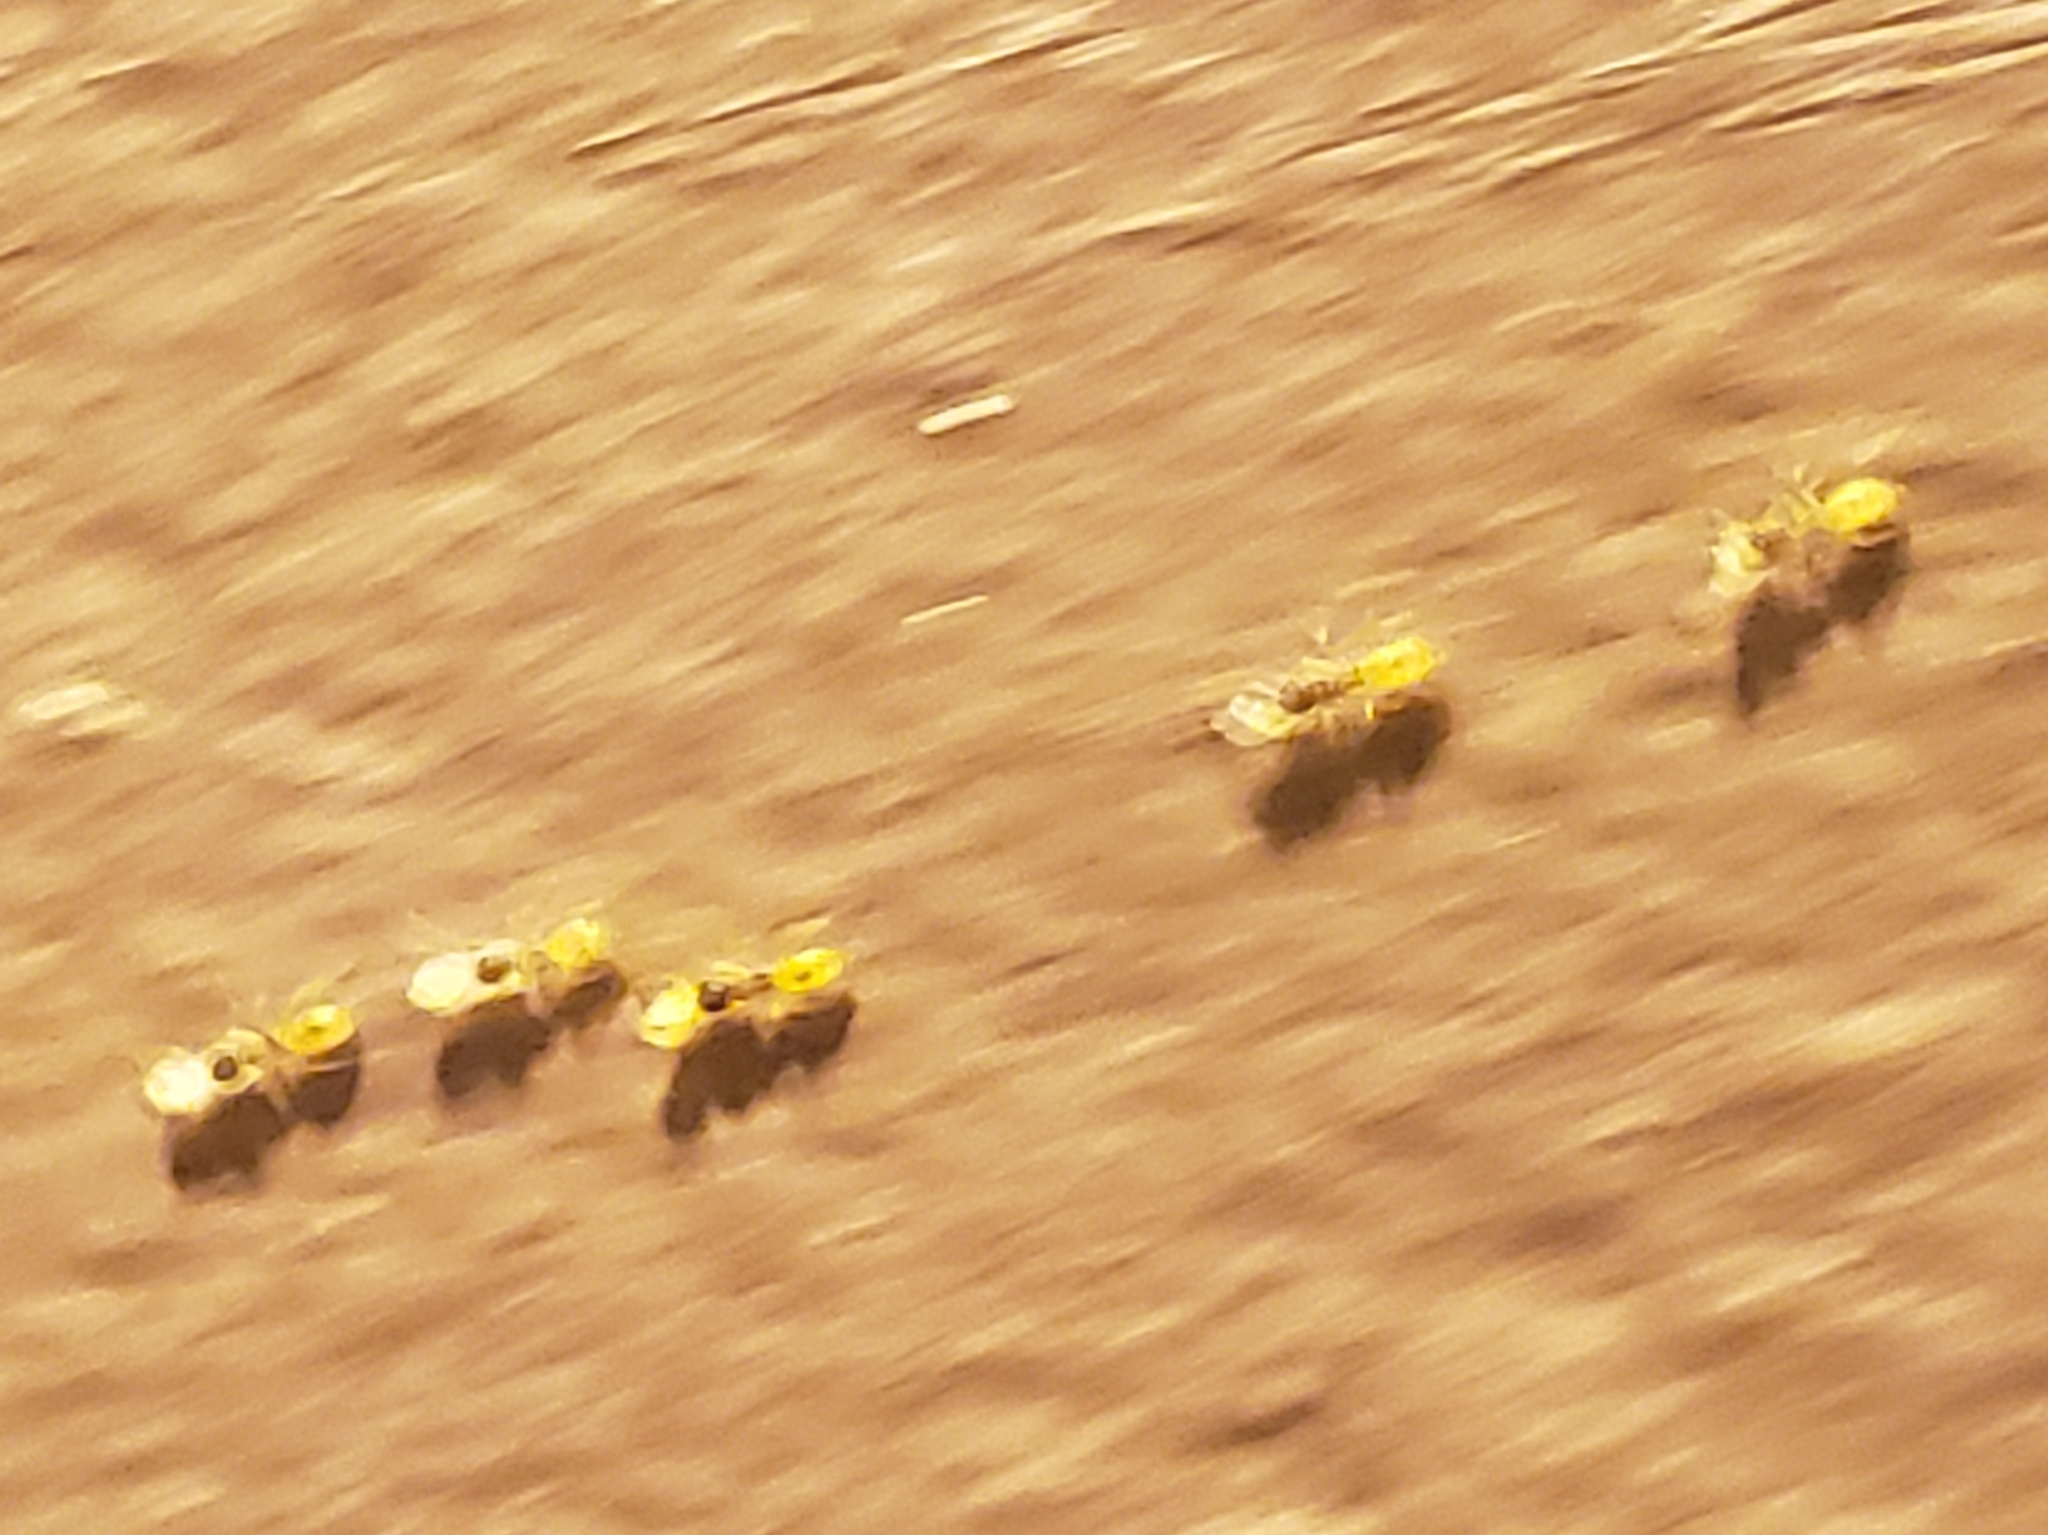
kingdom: Animalia
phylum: Arthropoda
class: Insecta
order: Hymenoptera
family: Formicidae
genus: Tapinoma
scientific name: Tapinoma melanocephalum
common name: Ghost ant
